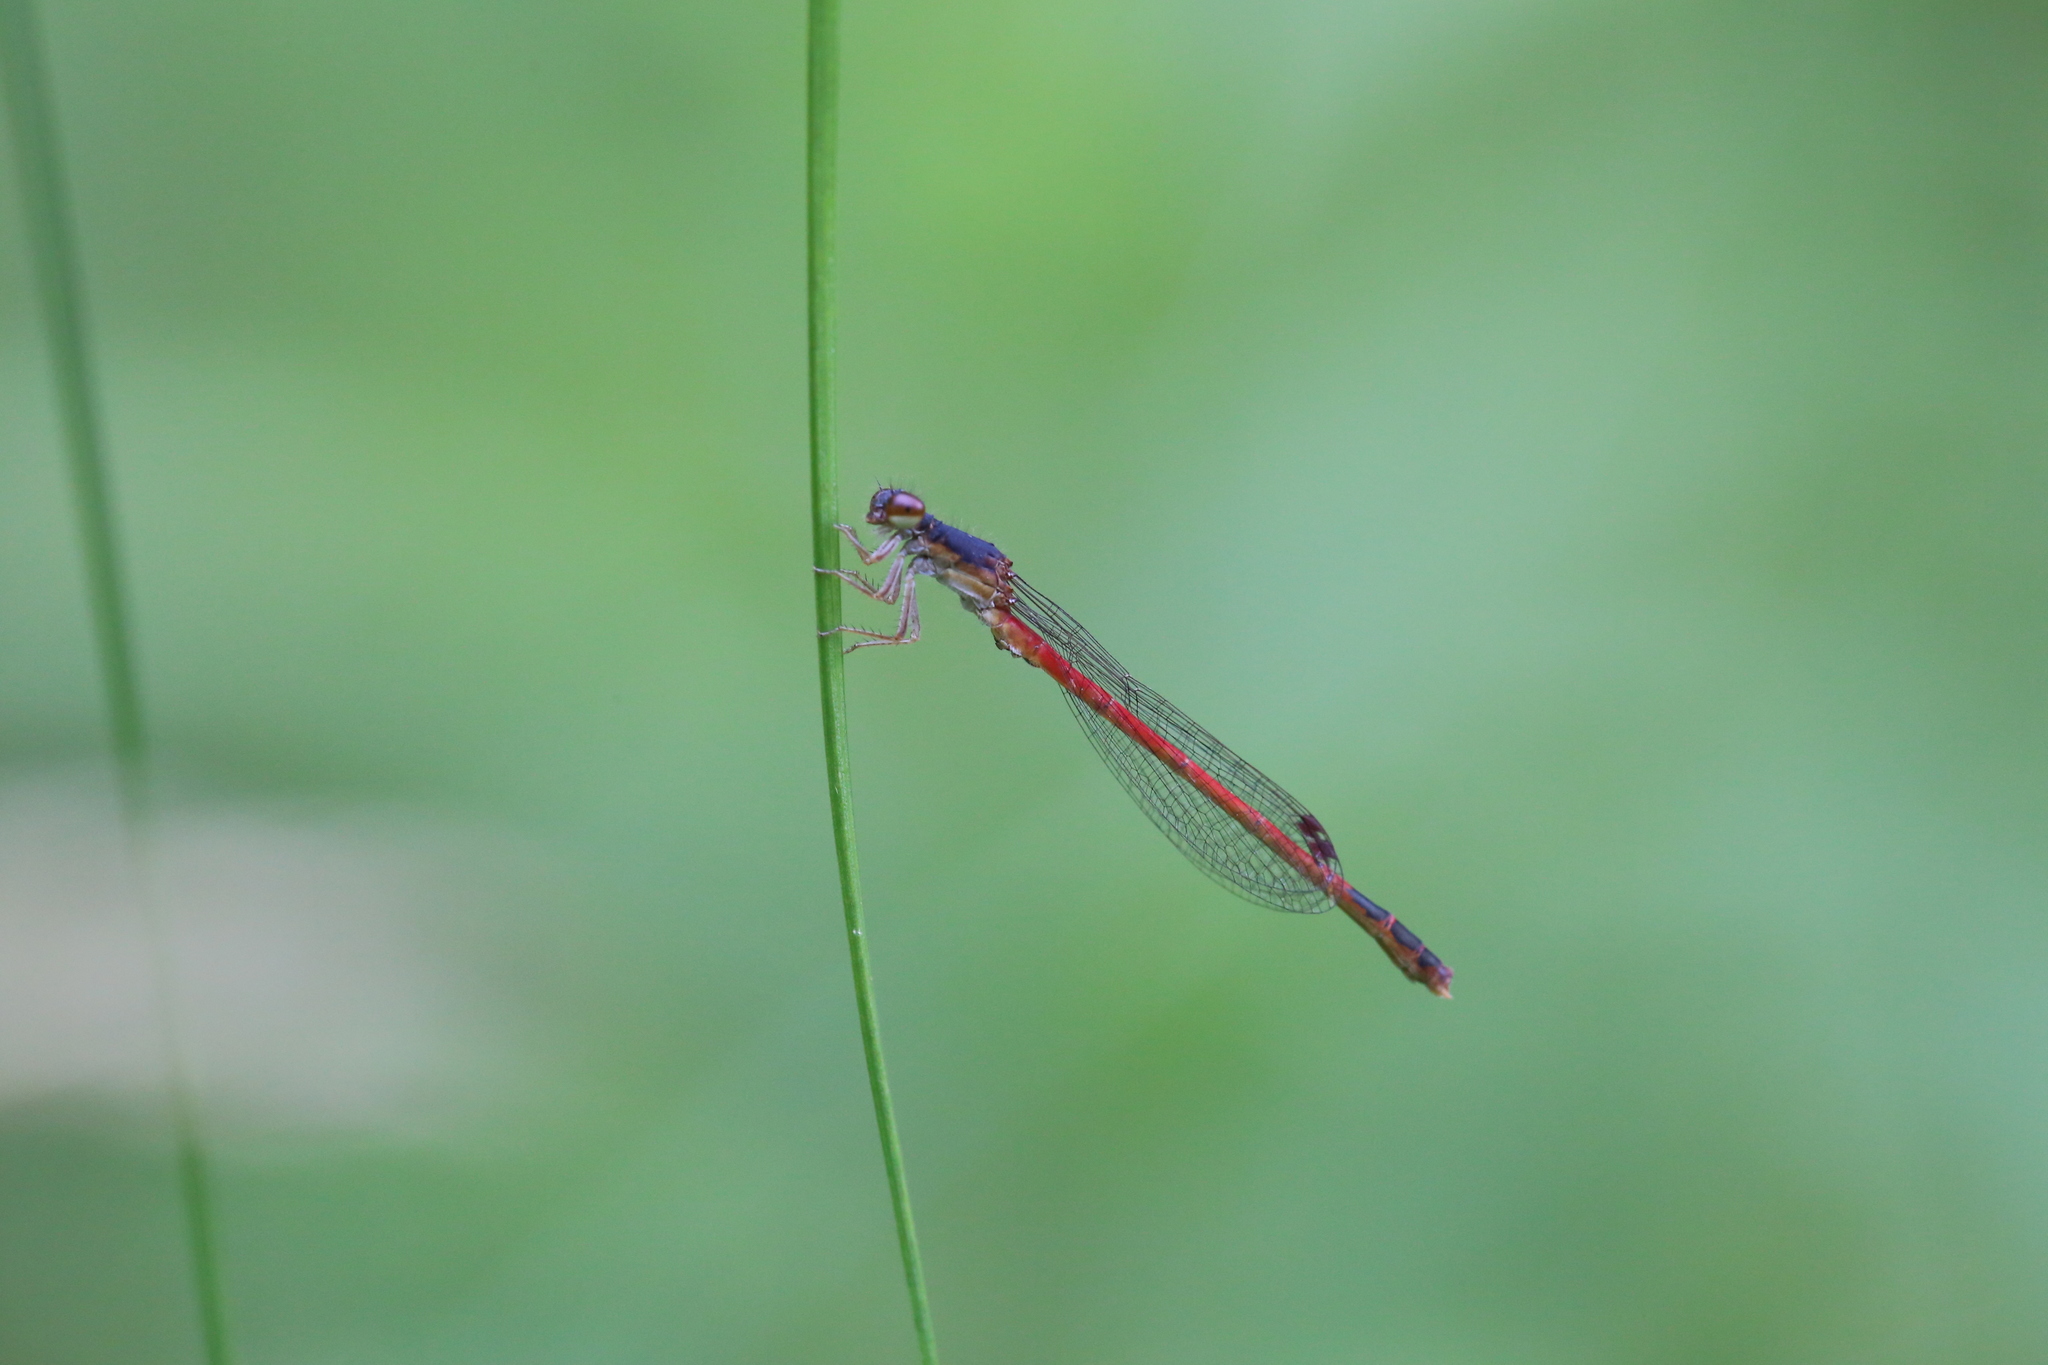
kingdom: Animalia
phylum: Arthropoda
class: Insecta
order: Odonata
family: Coenagrionidae
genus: Amphiagrion
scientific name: Amphiagrion saucium
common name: Eastern red damsel
